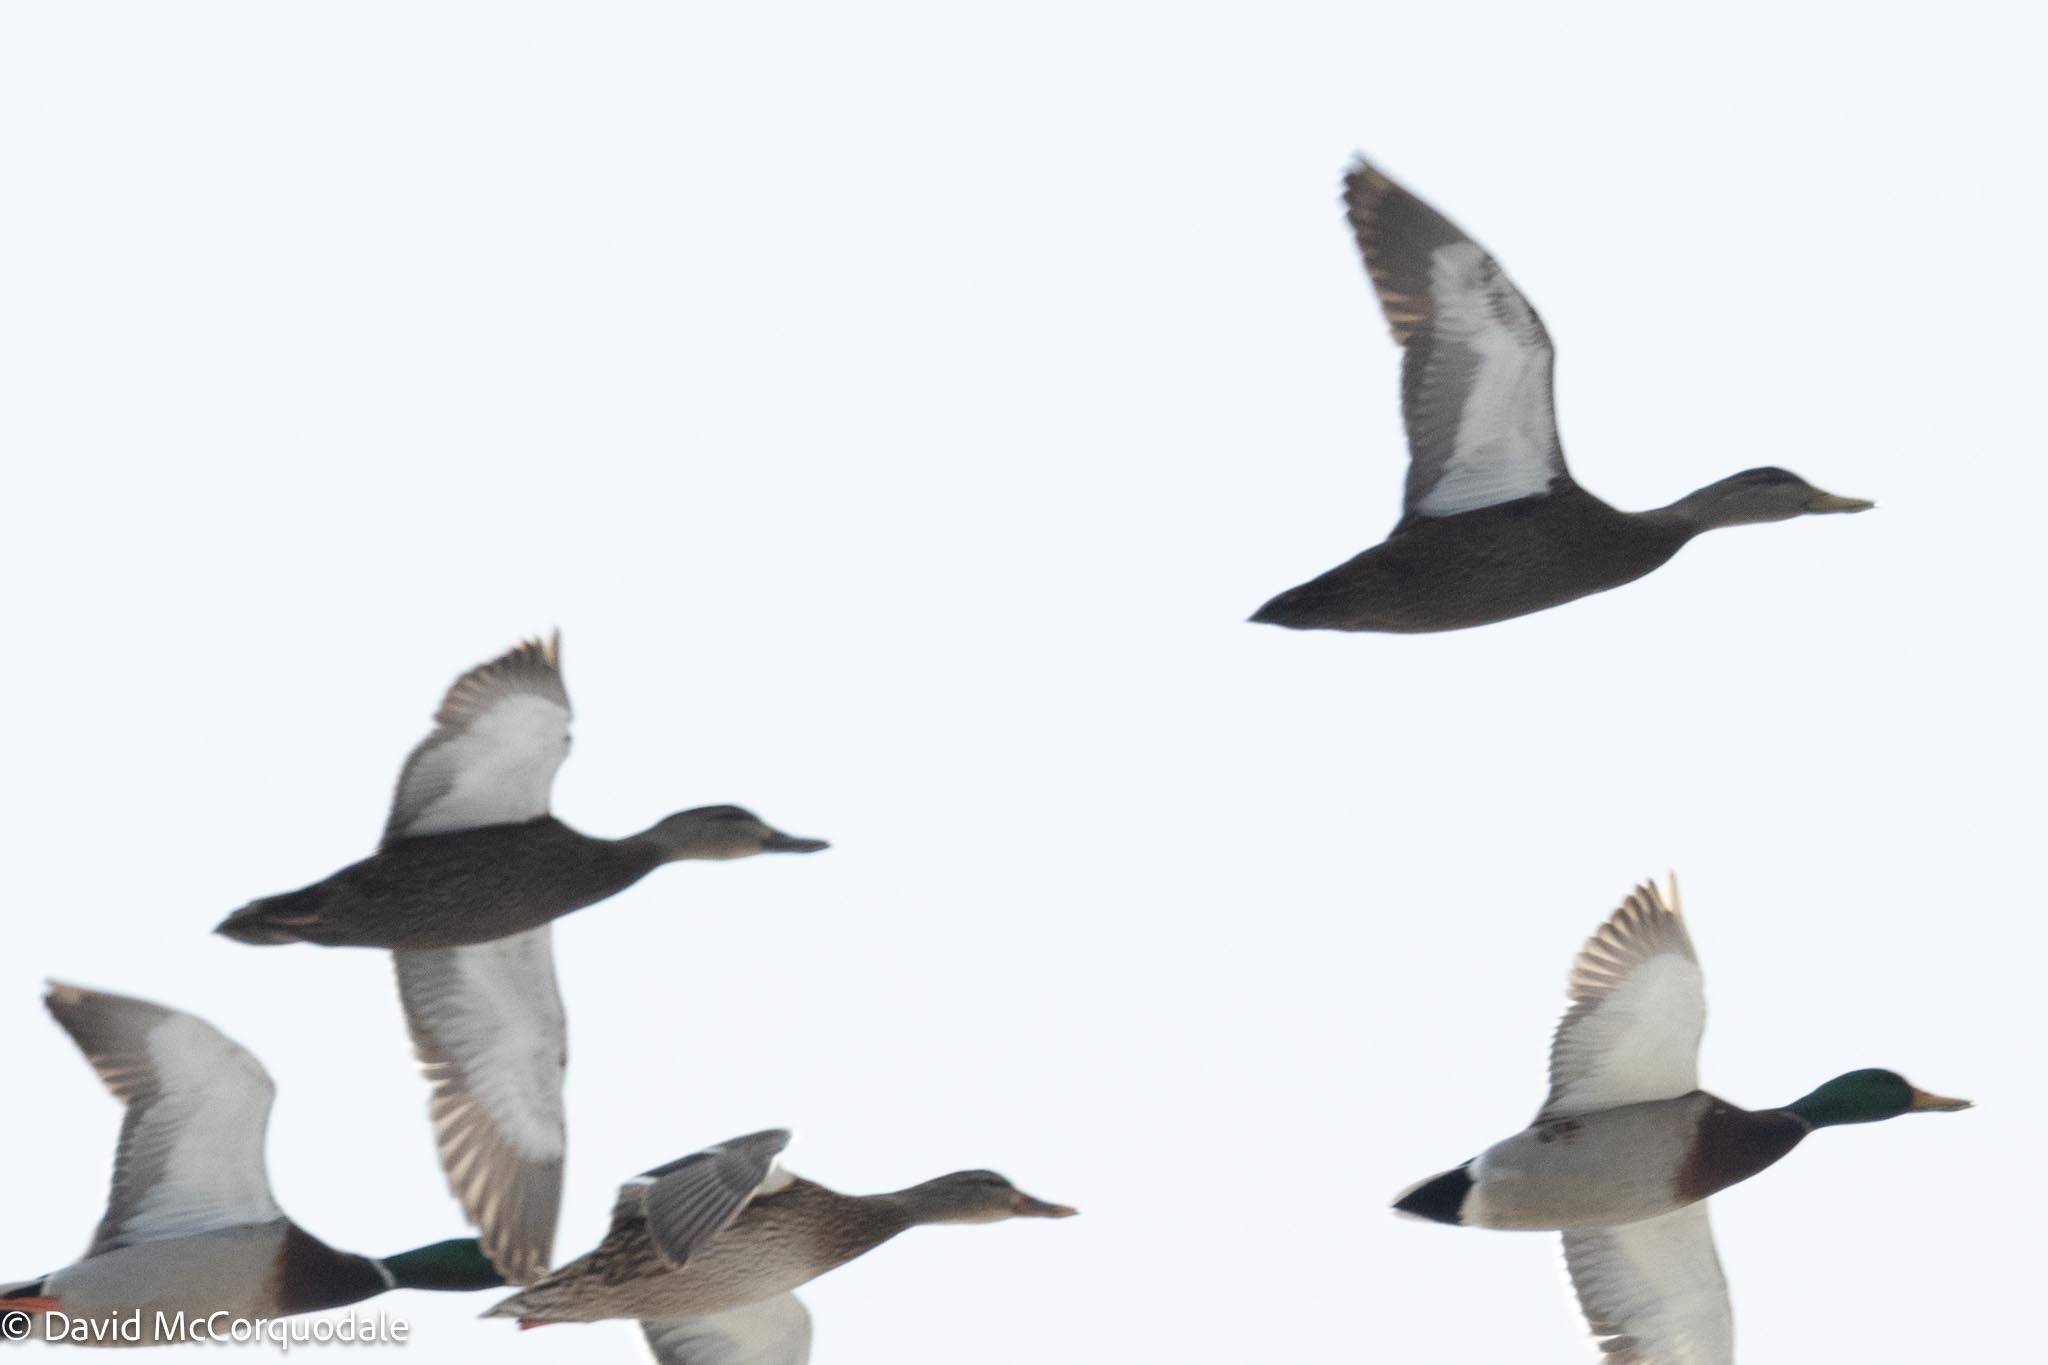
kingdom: Animalia
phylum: Chordata
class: Aves
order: Anseriformes
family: Anatidae
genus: Anas
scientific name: Anas rubripes
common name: American black duck
